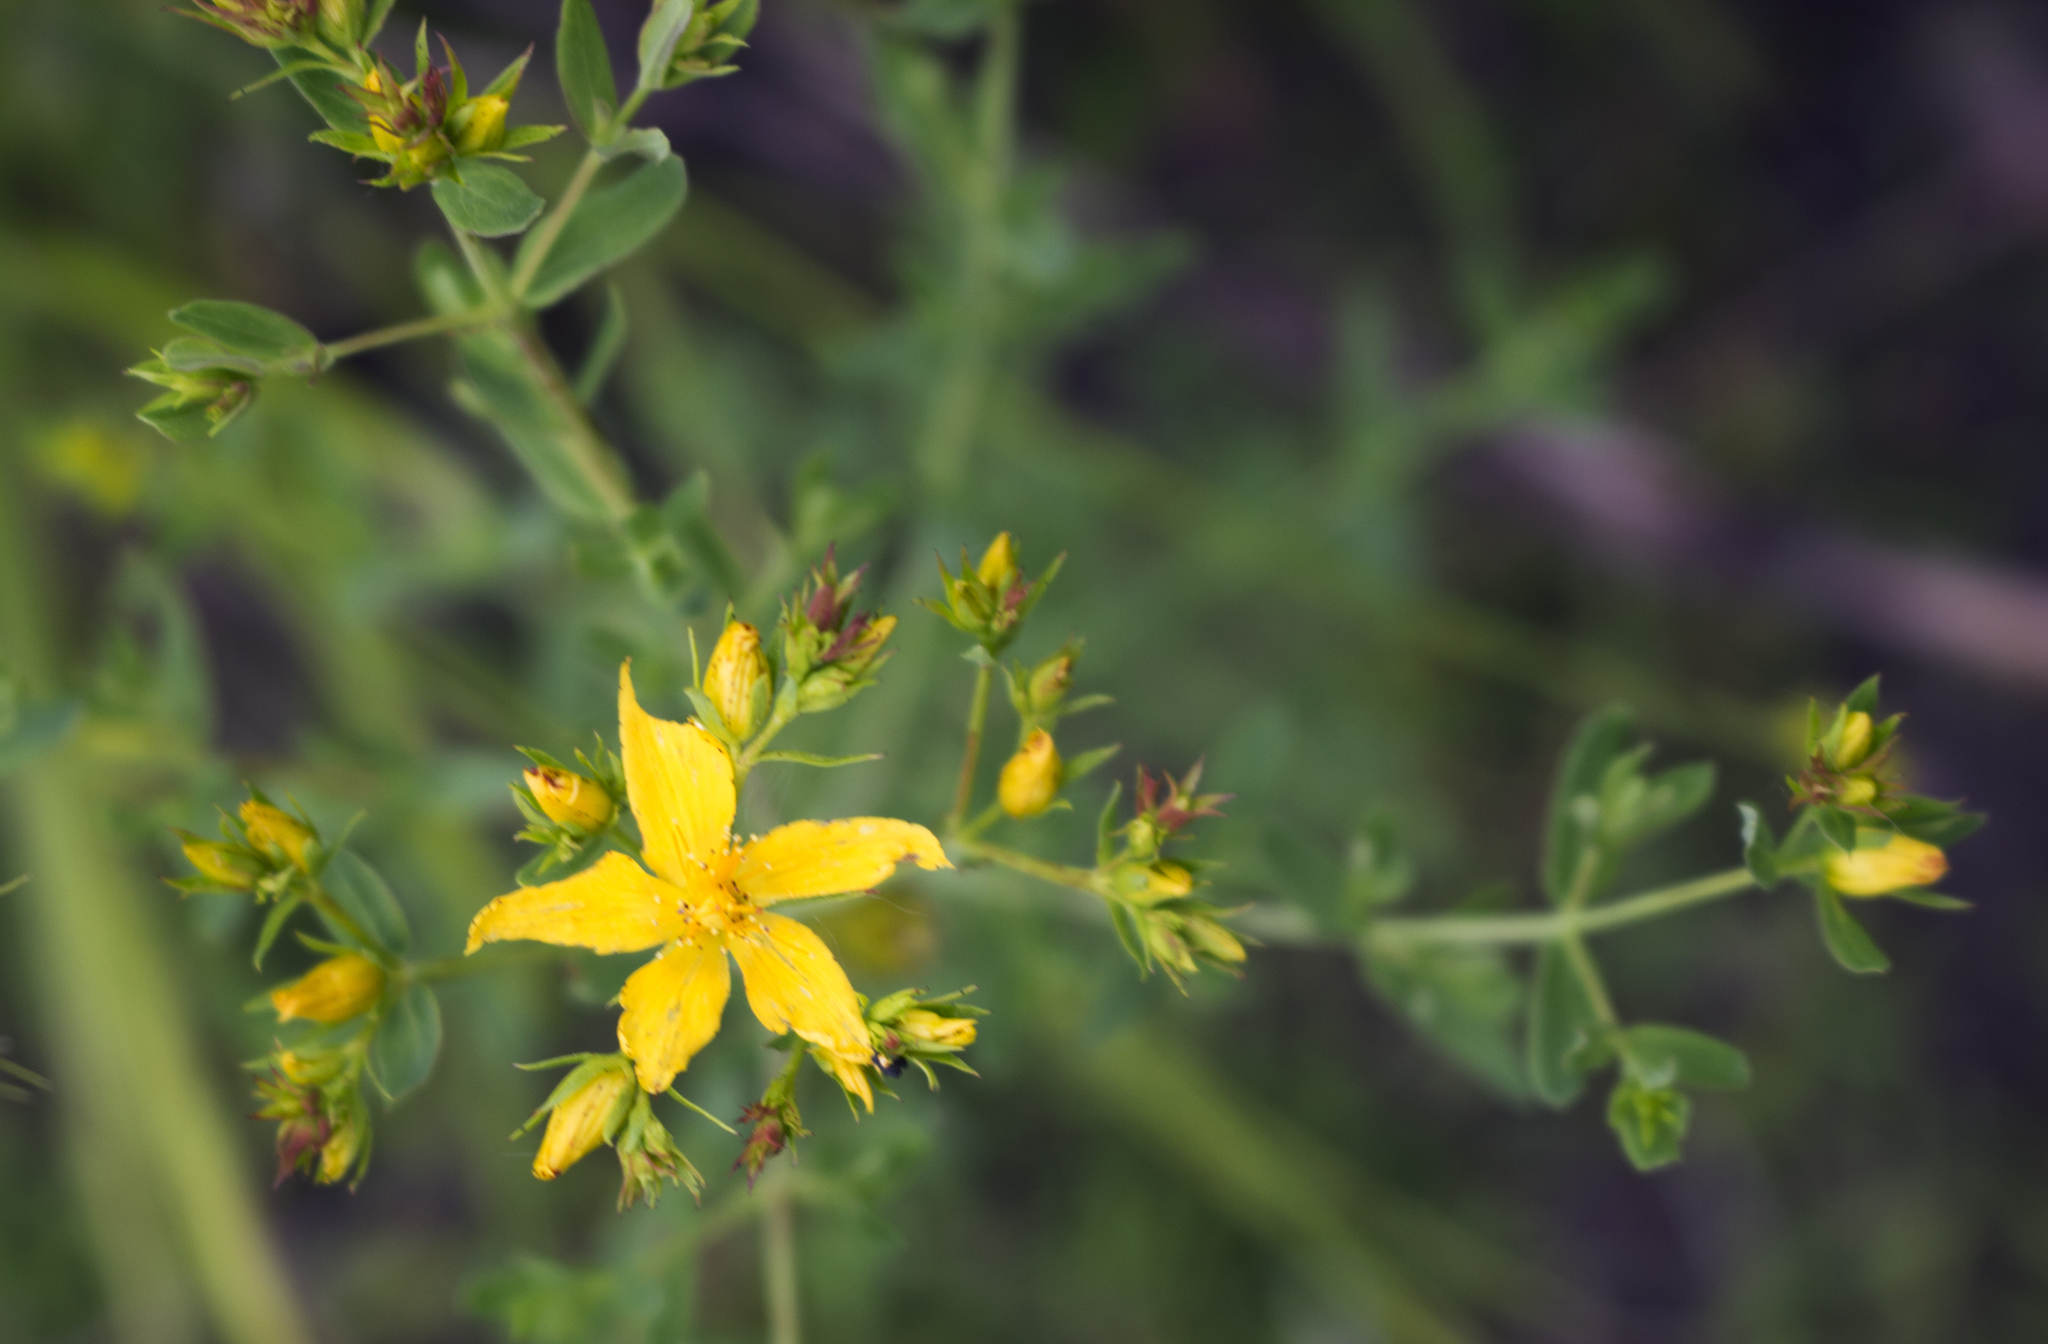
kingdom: Plantae
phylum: Tracheophyta
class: Magnoliopsida
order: Malpighiales
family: Hypericaceae
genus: Hypericum
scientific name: Hypericum perforatum
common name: Common st. johnswort
